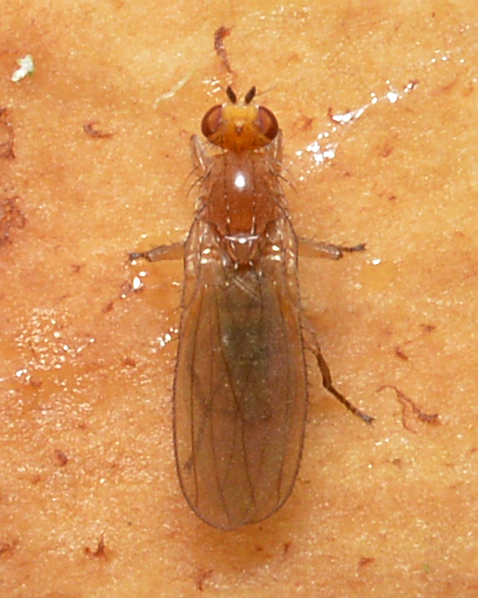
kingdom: Animalia
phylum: Arthropoda
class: Insecta
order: Diptera
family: Heleomyzidae
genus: Allophyla
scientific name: Allophyla atricornis
